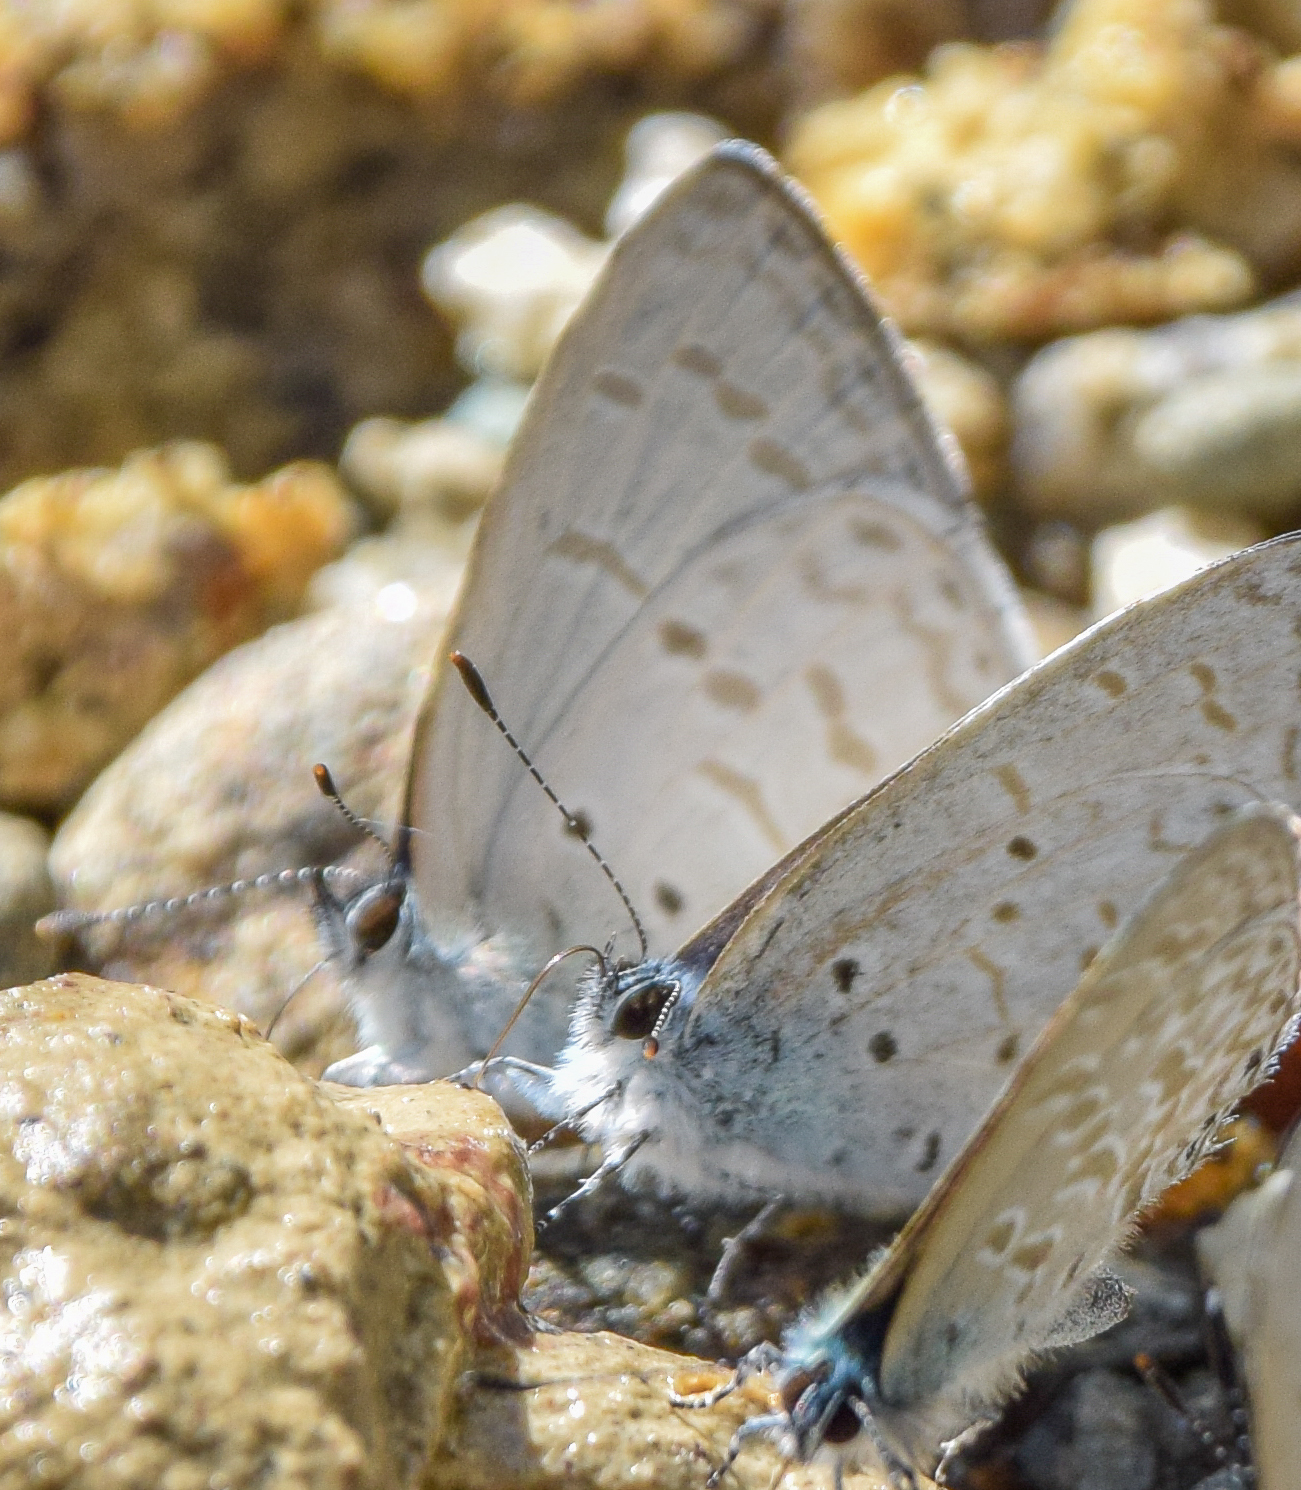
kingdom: Animalia
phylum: Arthropoda
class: Insecta
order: Lepidoptera
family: Lycaenidae
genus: Udara
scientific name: Udara
